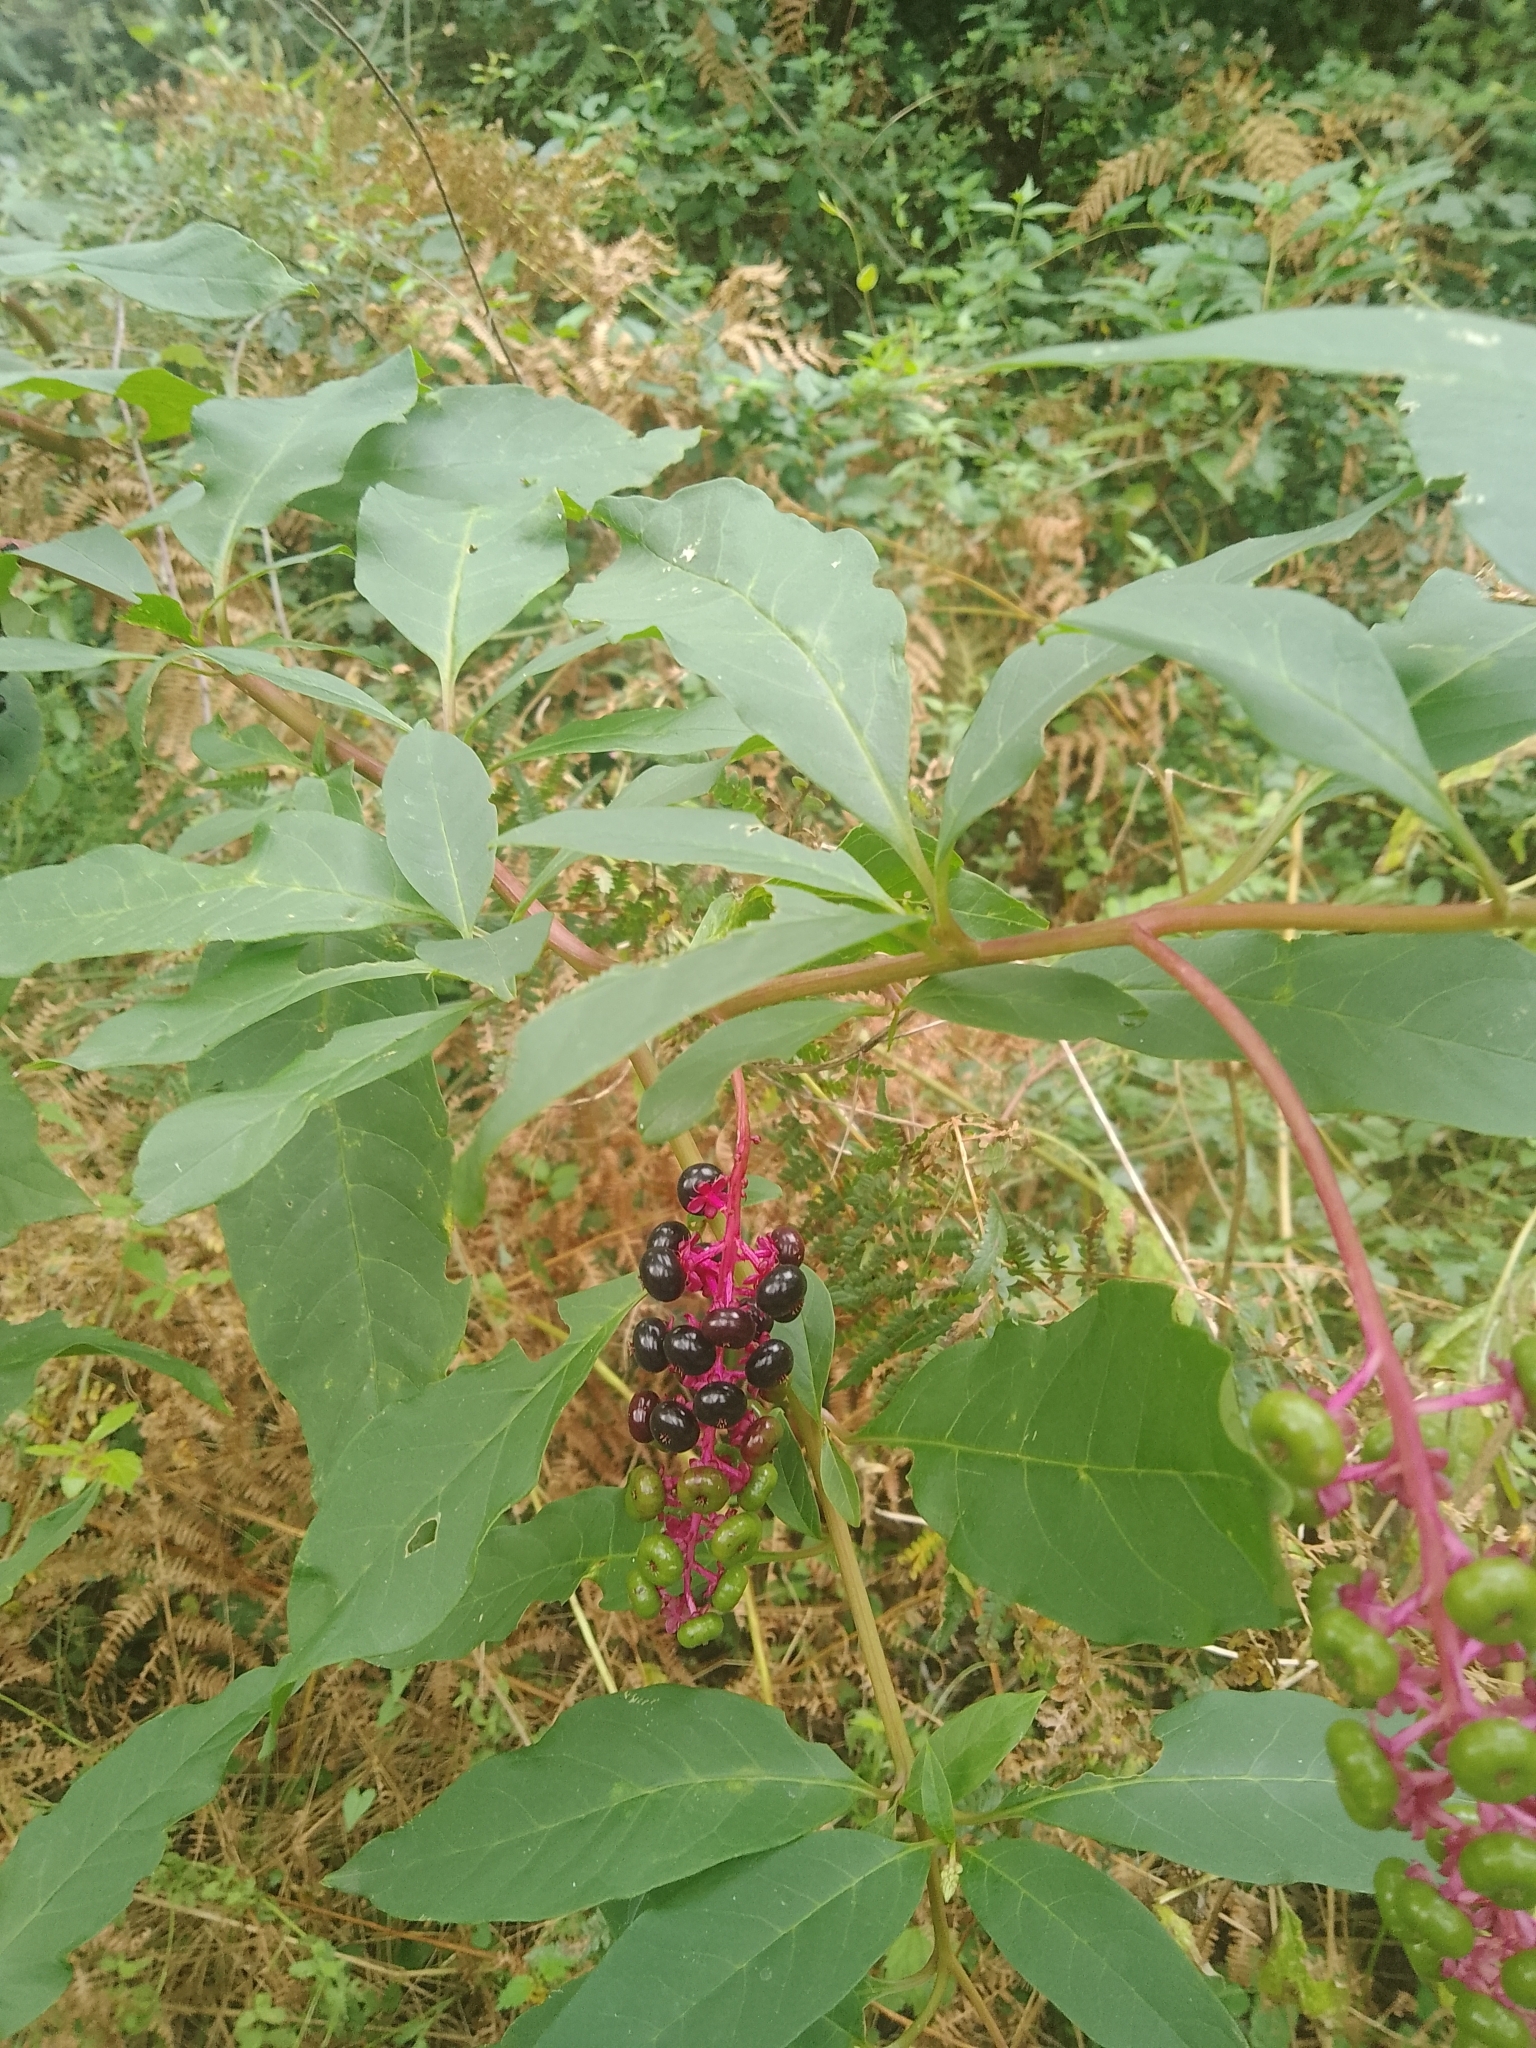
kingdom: Plantae
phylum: Tracheophyta
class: Magnoliopsida
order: Caryophyllales
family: Phytolaccaceae
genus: Phytolacca
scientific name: Phytolacca americana
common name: American pokeweed
